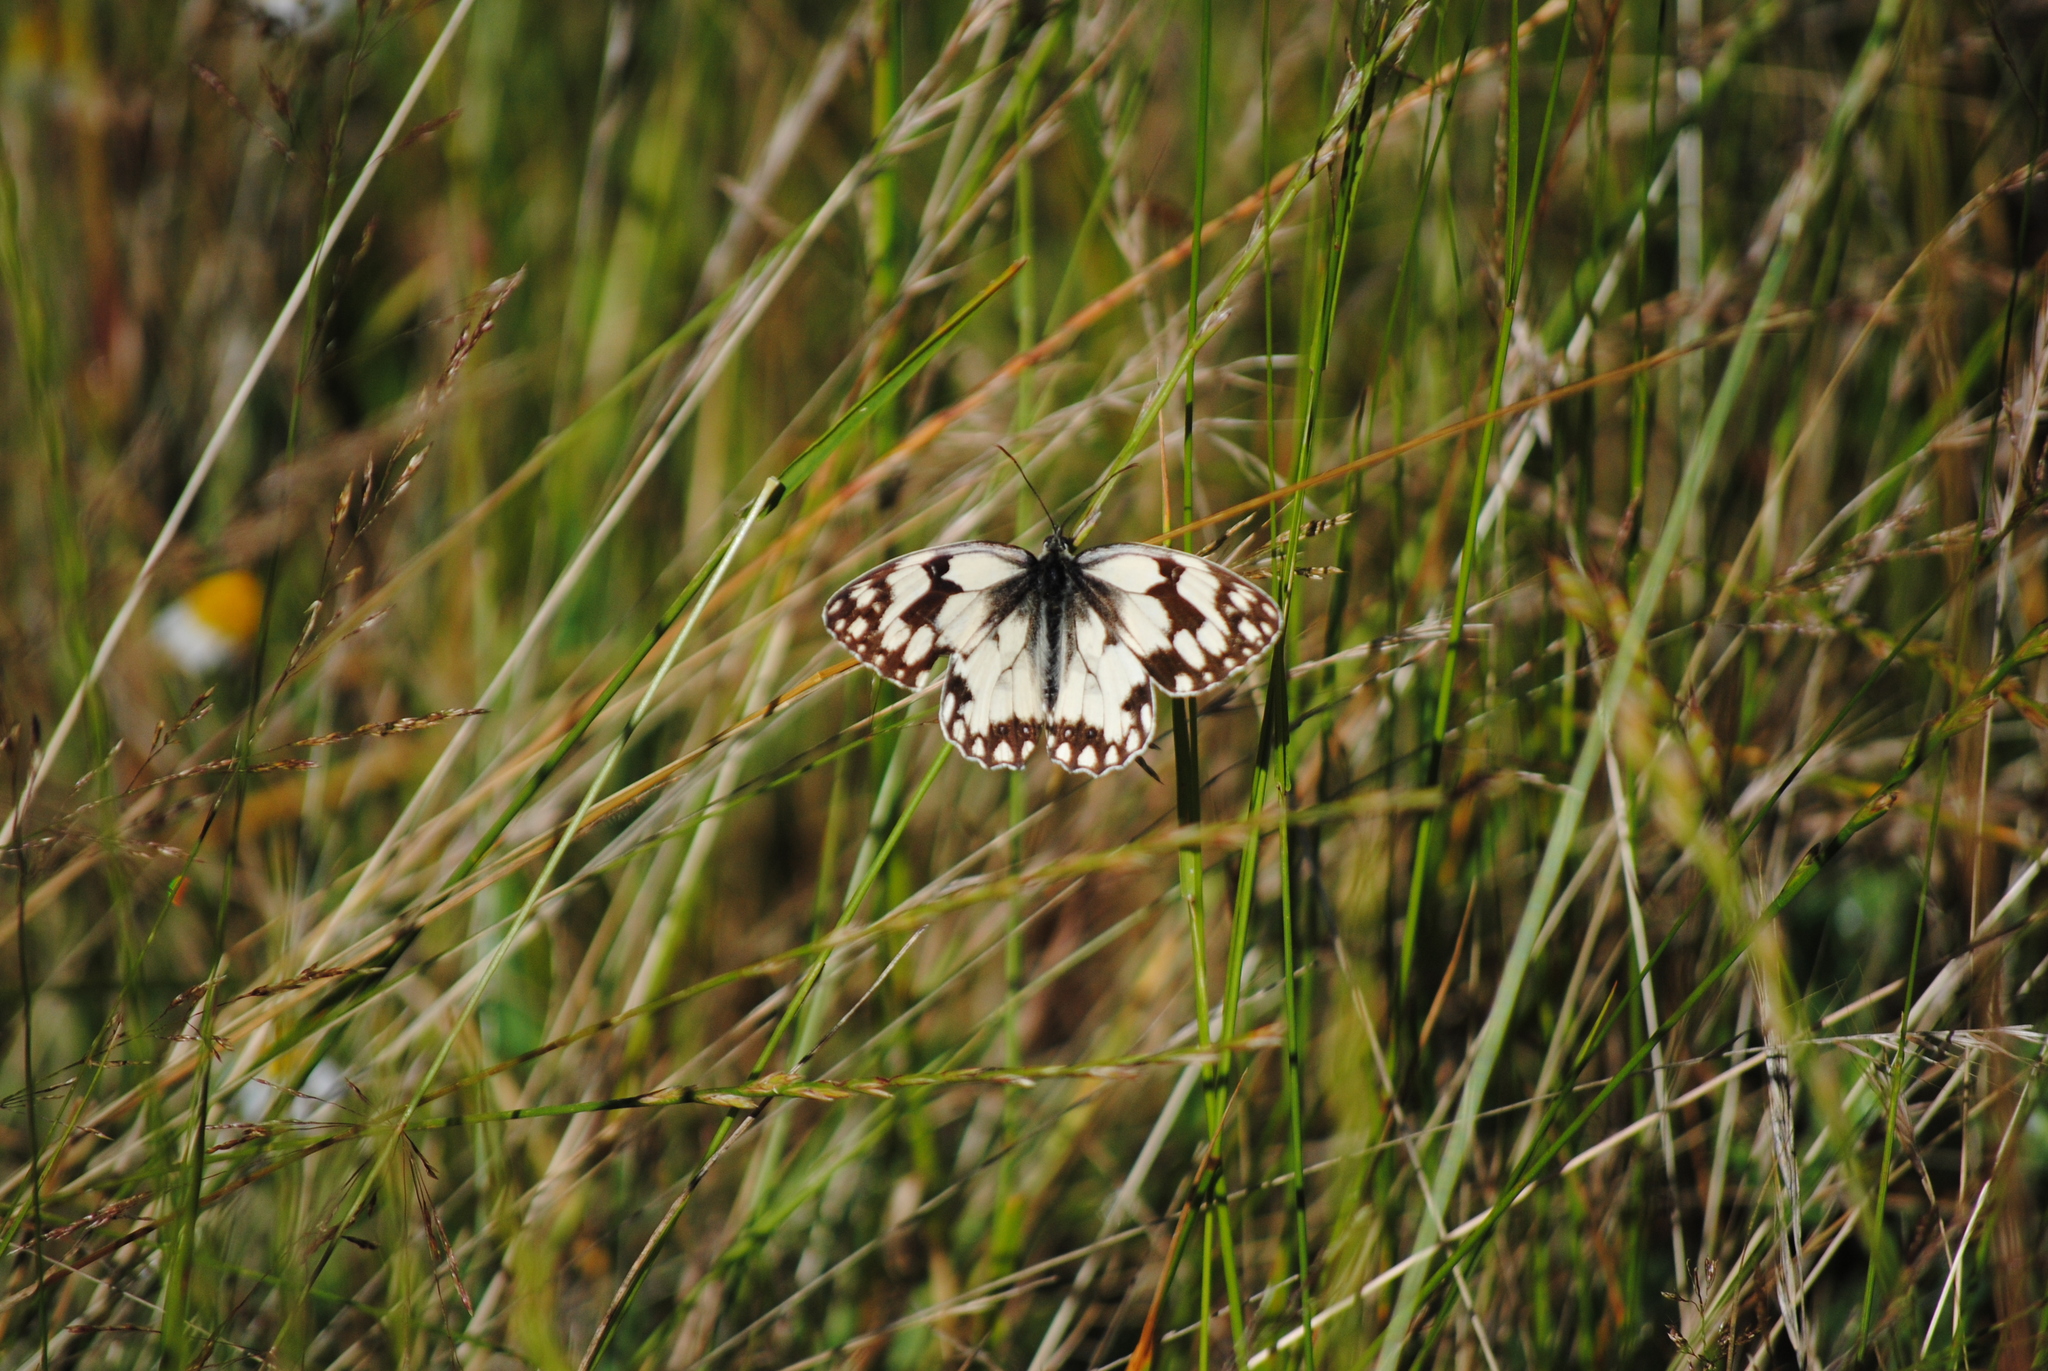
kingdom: Animalia
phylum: Arthropoda
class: Insecta
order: Lepidoptera
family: Nymphalidae
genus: Melanargia
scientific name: Melanargia lachesis
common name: Iberian marbled white
